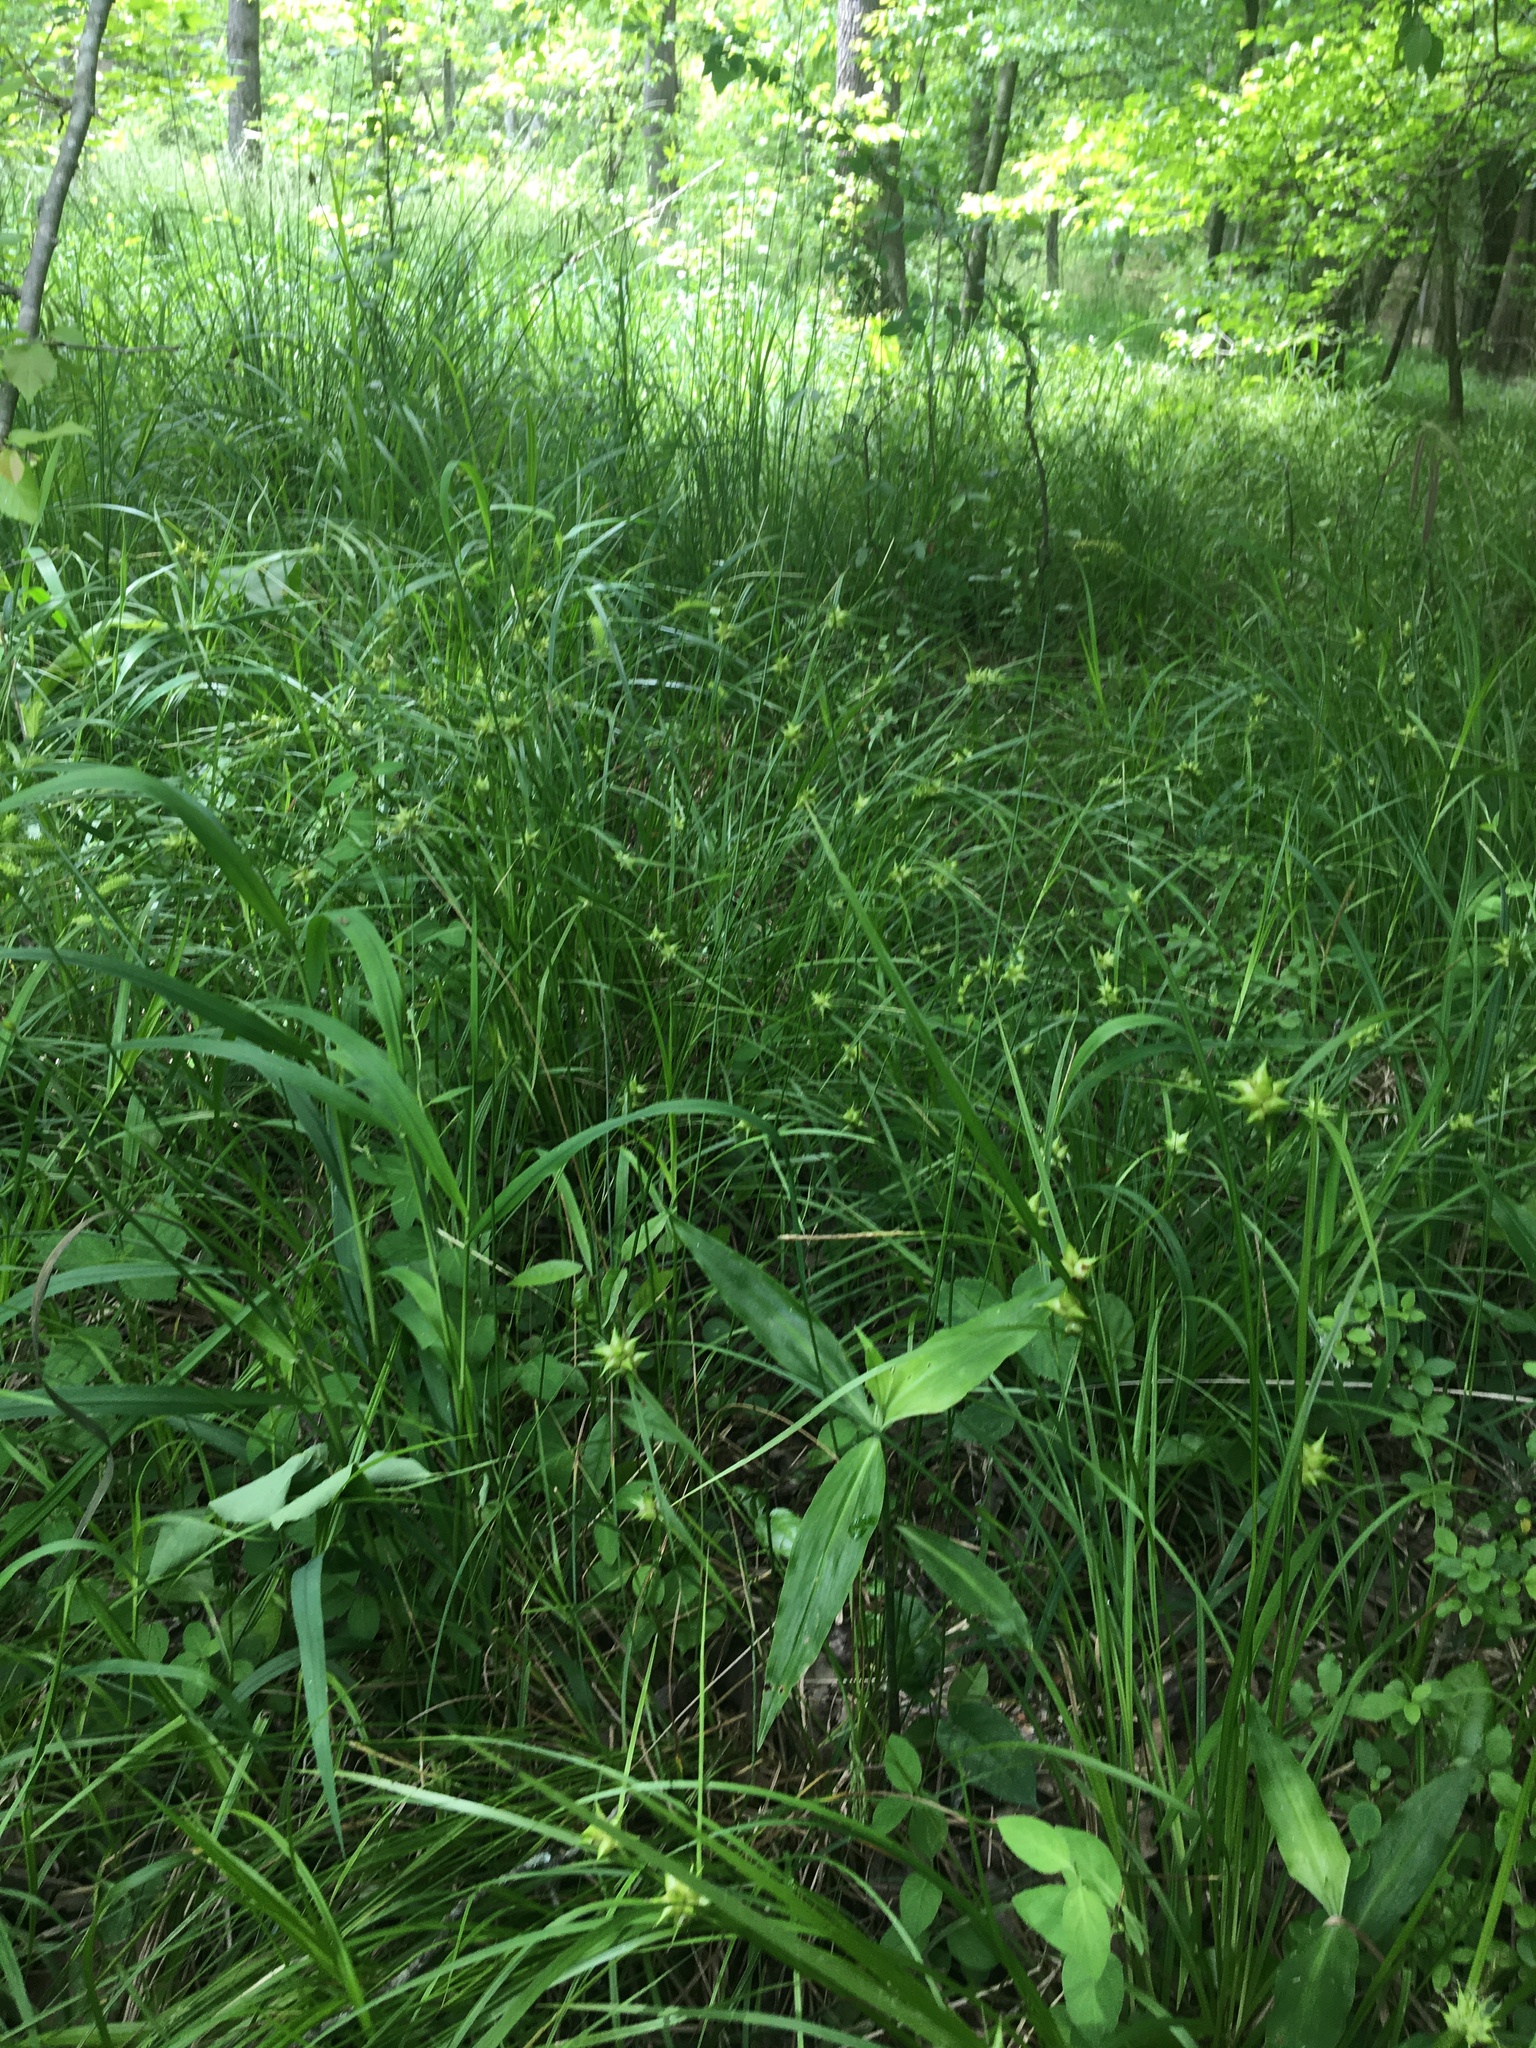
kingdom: Plantae
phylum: Tracheophyta
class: Liliopsida
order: Poales
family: Cyperaceae
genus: Carex
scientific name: Carex intumescens
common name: Greater bladder sedge
